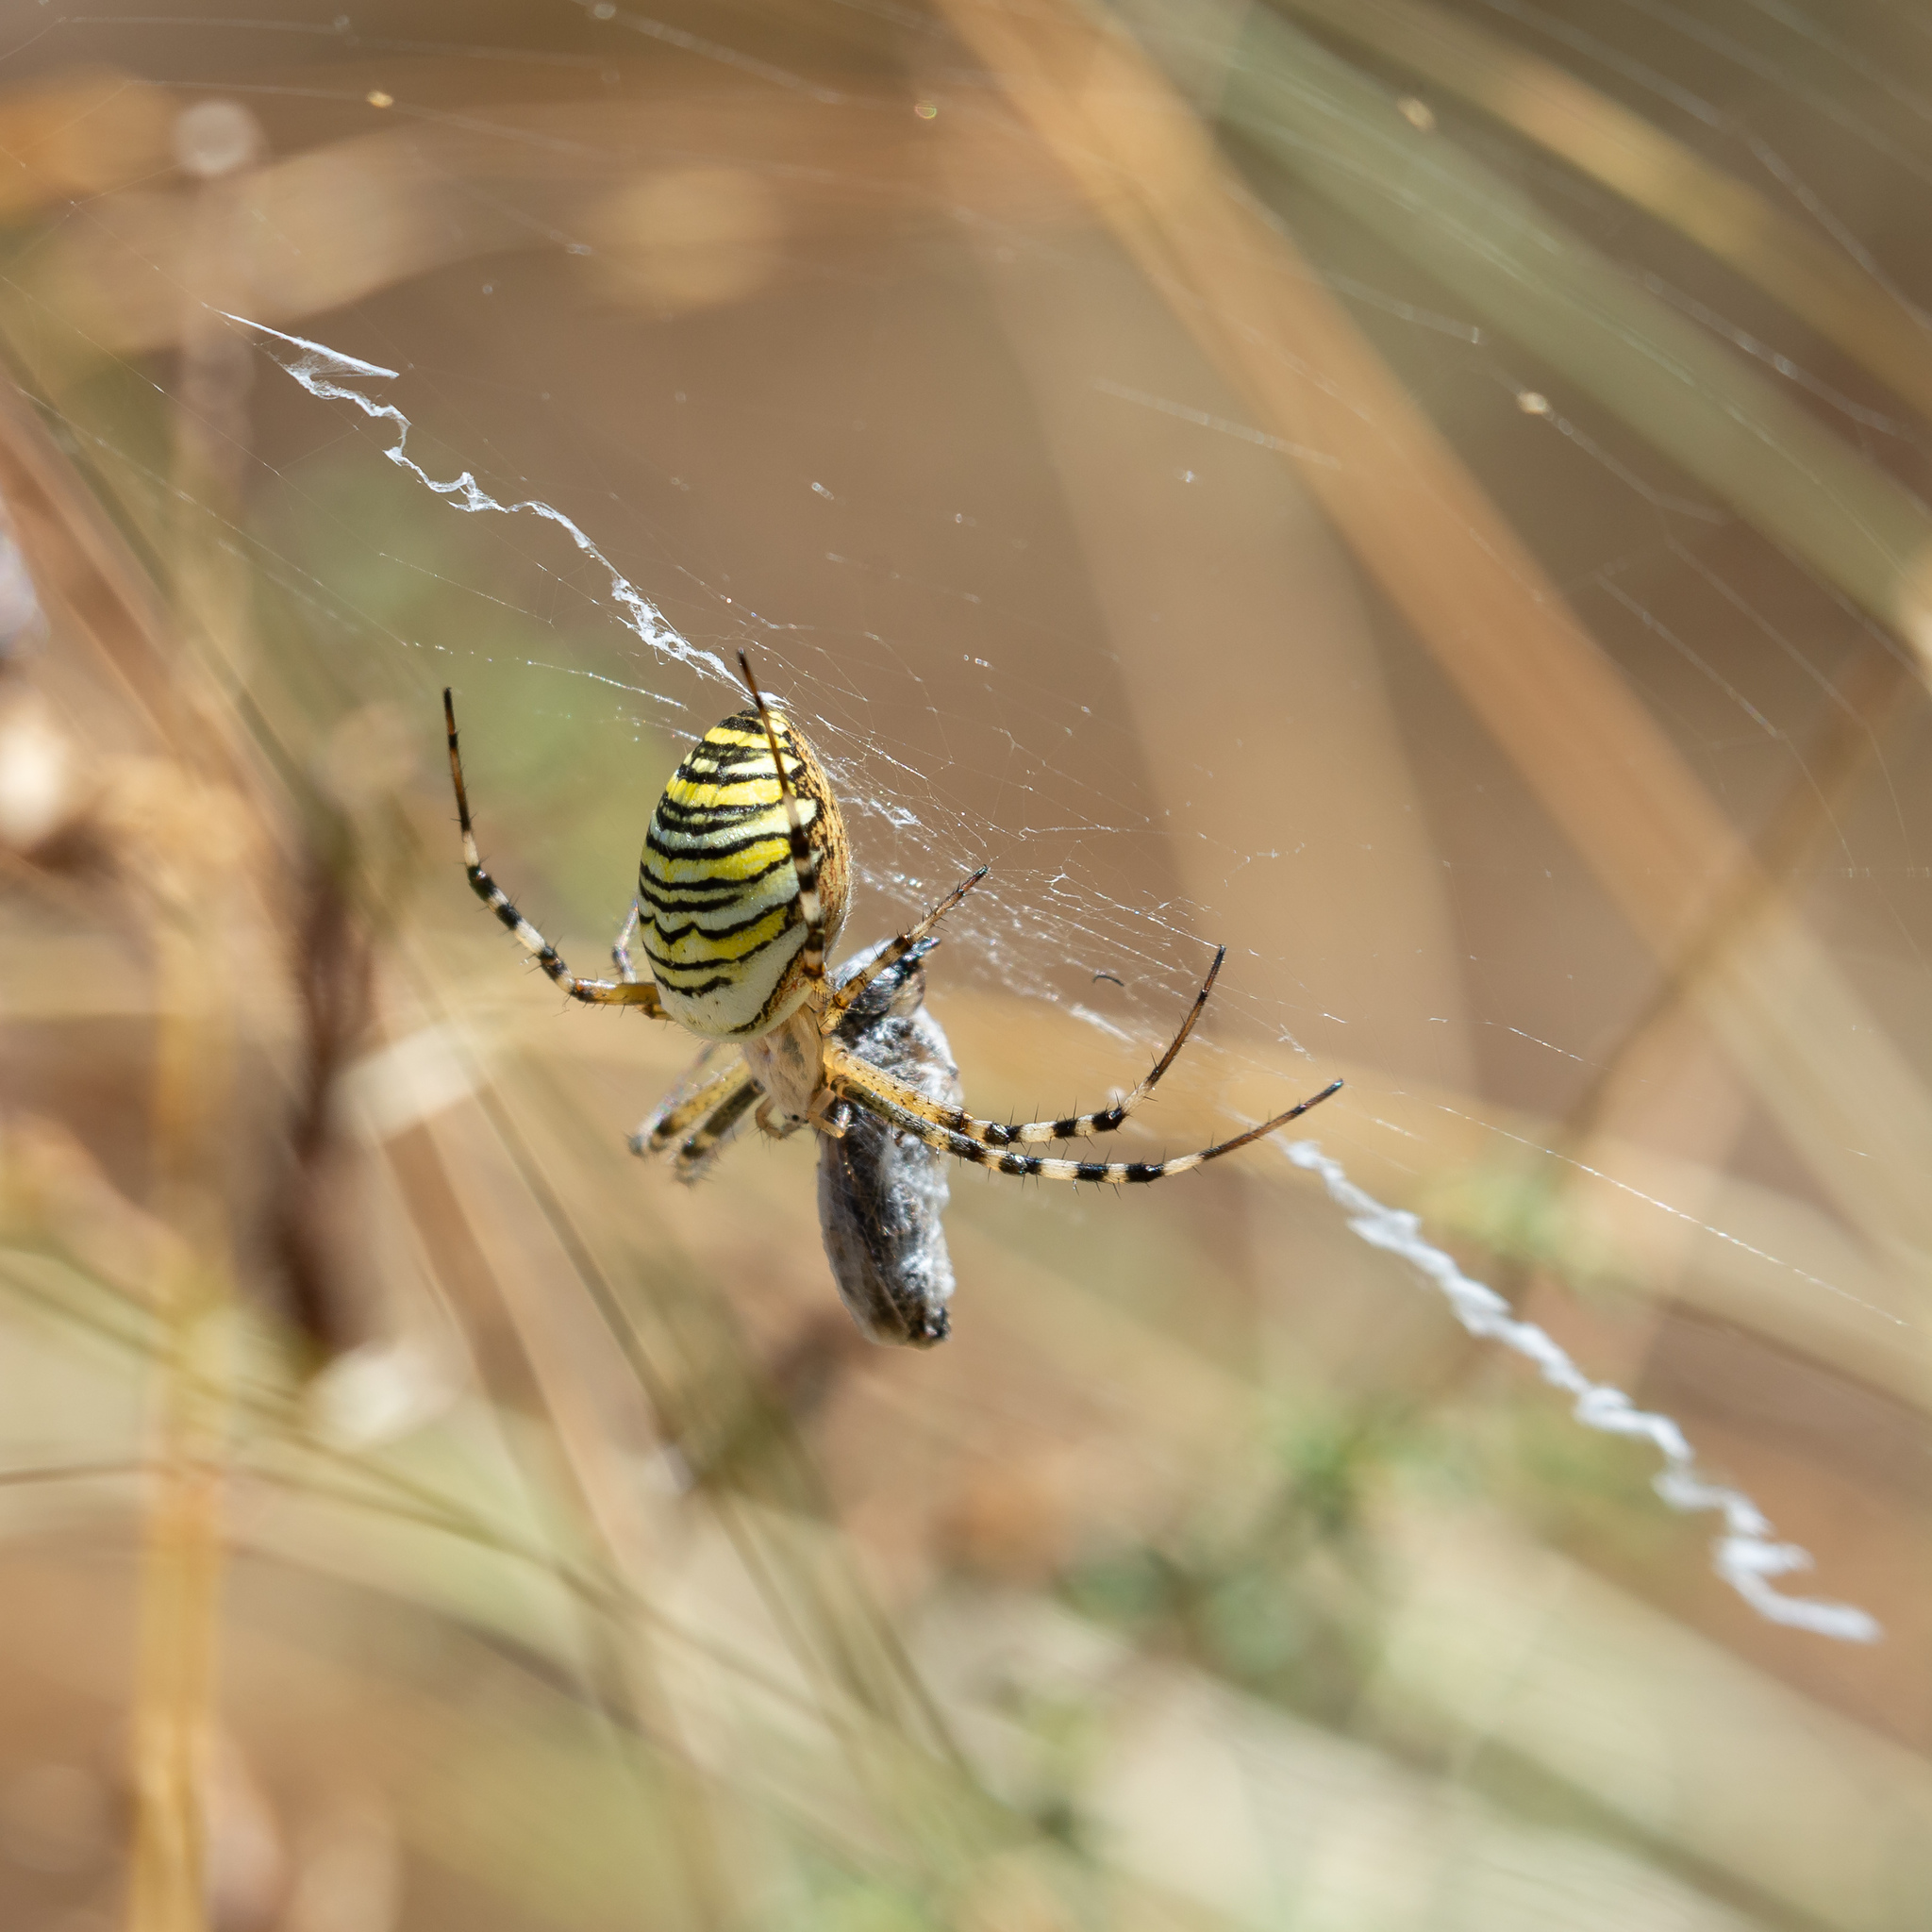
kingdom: Animalia
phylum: Arthropoda
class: Arachnida
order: Araneae
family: Araneidae
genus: Argiope
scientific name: Argiope bruennichi
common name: Wasp spider
